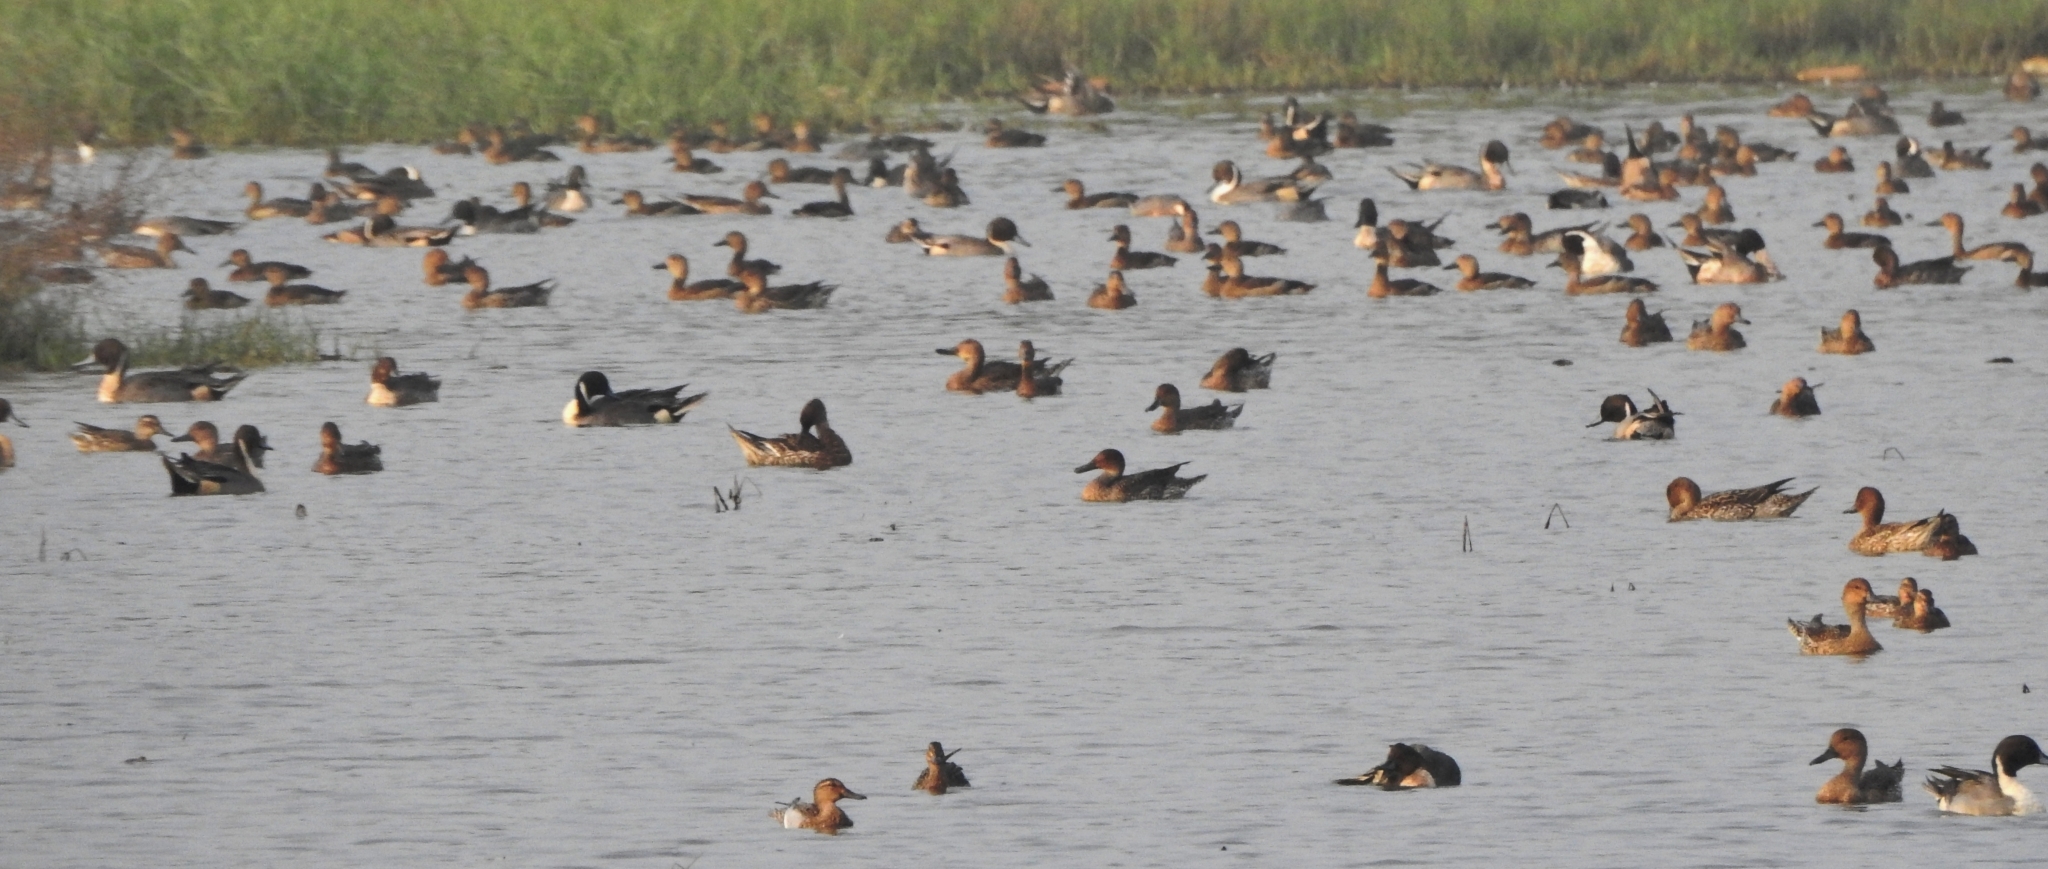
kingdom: Animalia
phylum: Chordata
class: Aves
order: Anseriformes
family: Anatidae
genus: Spatula
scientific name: Spatula querquedula
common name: Garganey
